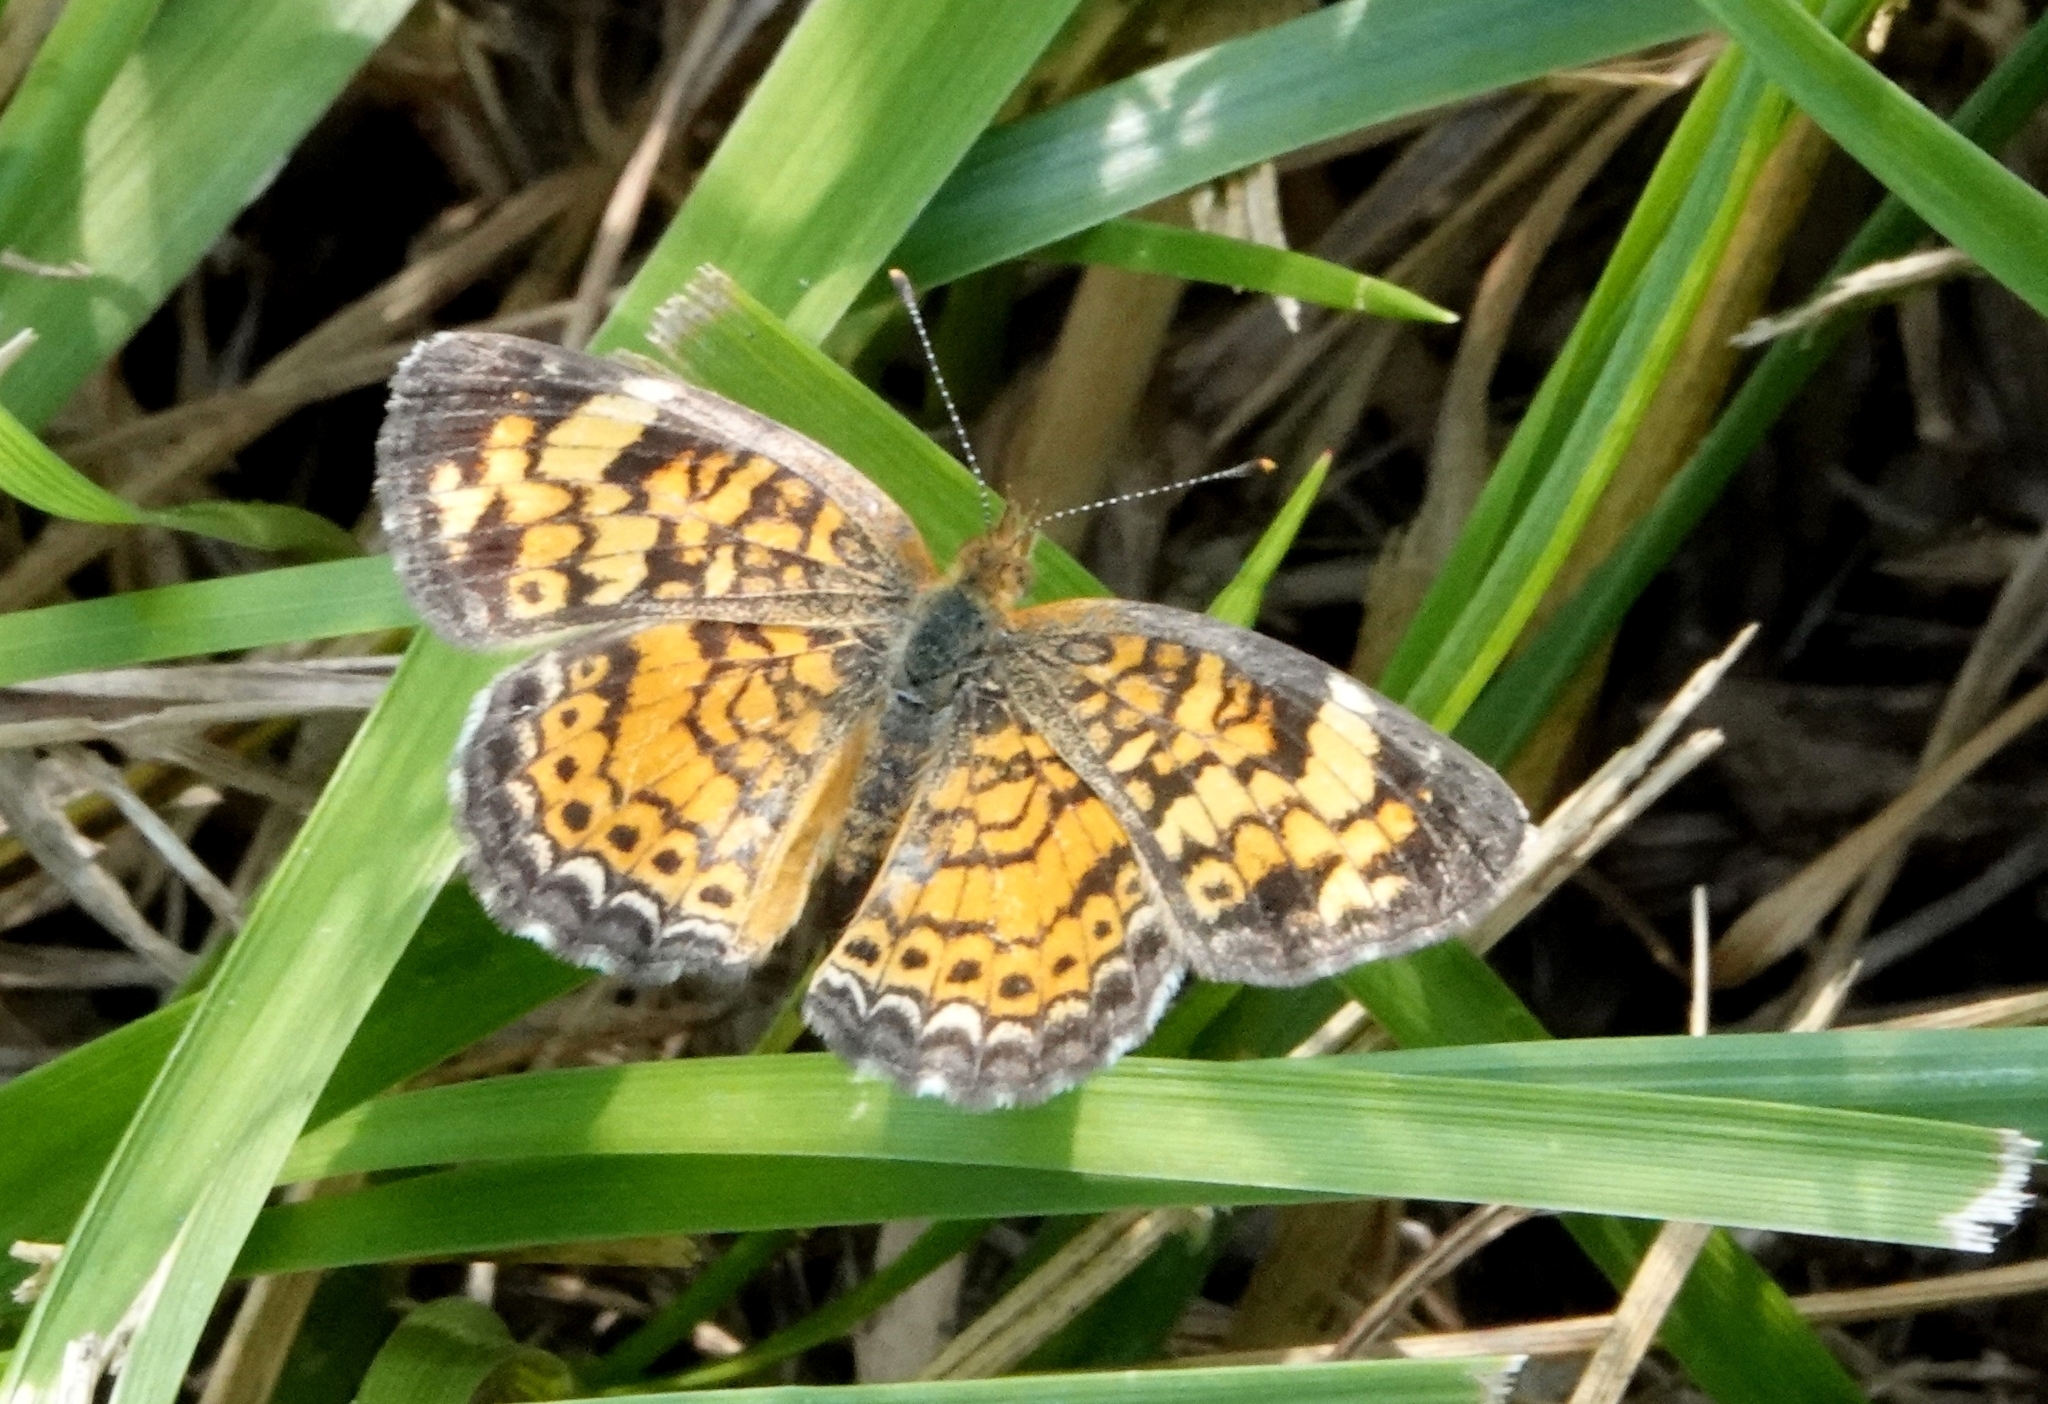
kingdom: Animalia
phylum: Arthropoda
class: Insecta
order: Lepidoptera
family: Nymphalidae
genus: Phyciodes
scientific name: Phyciodes tharos
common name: Pearl crescent
